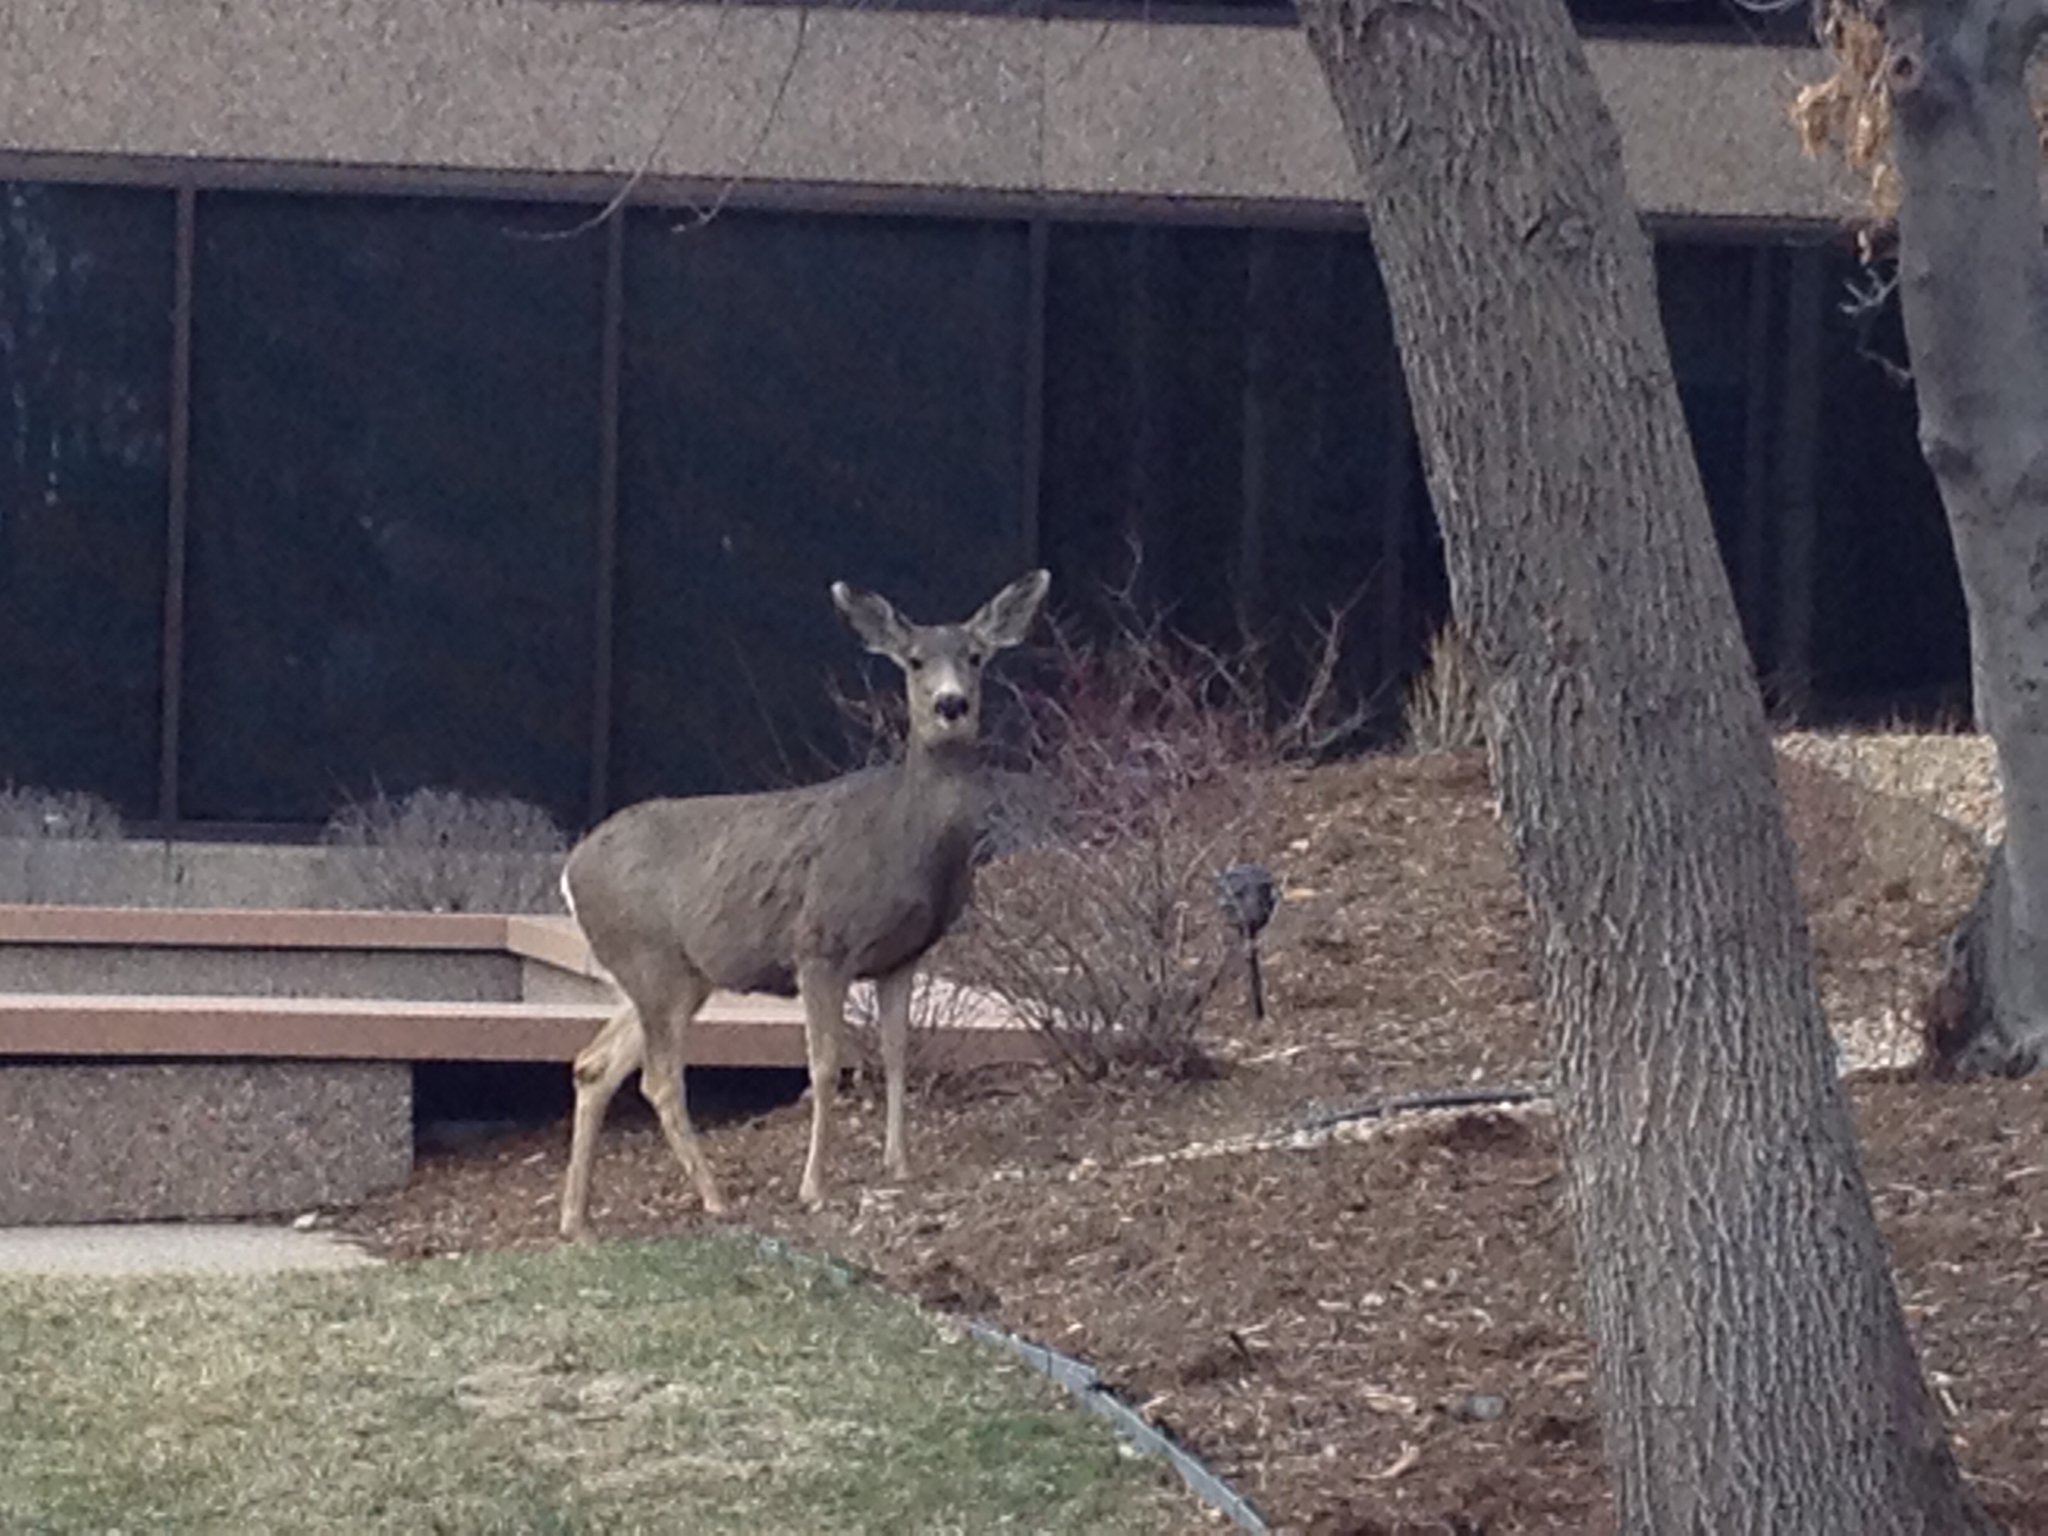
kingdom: Animalia
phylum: Chordata
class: Mammalia
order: Artiodactyla
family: Cervidae
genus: Odocoileus
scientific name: Odocoileus hemionus
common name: Mule deer
